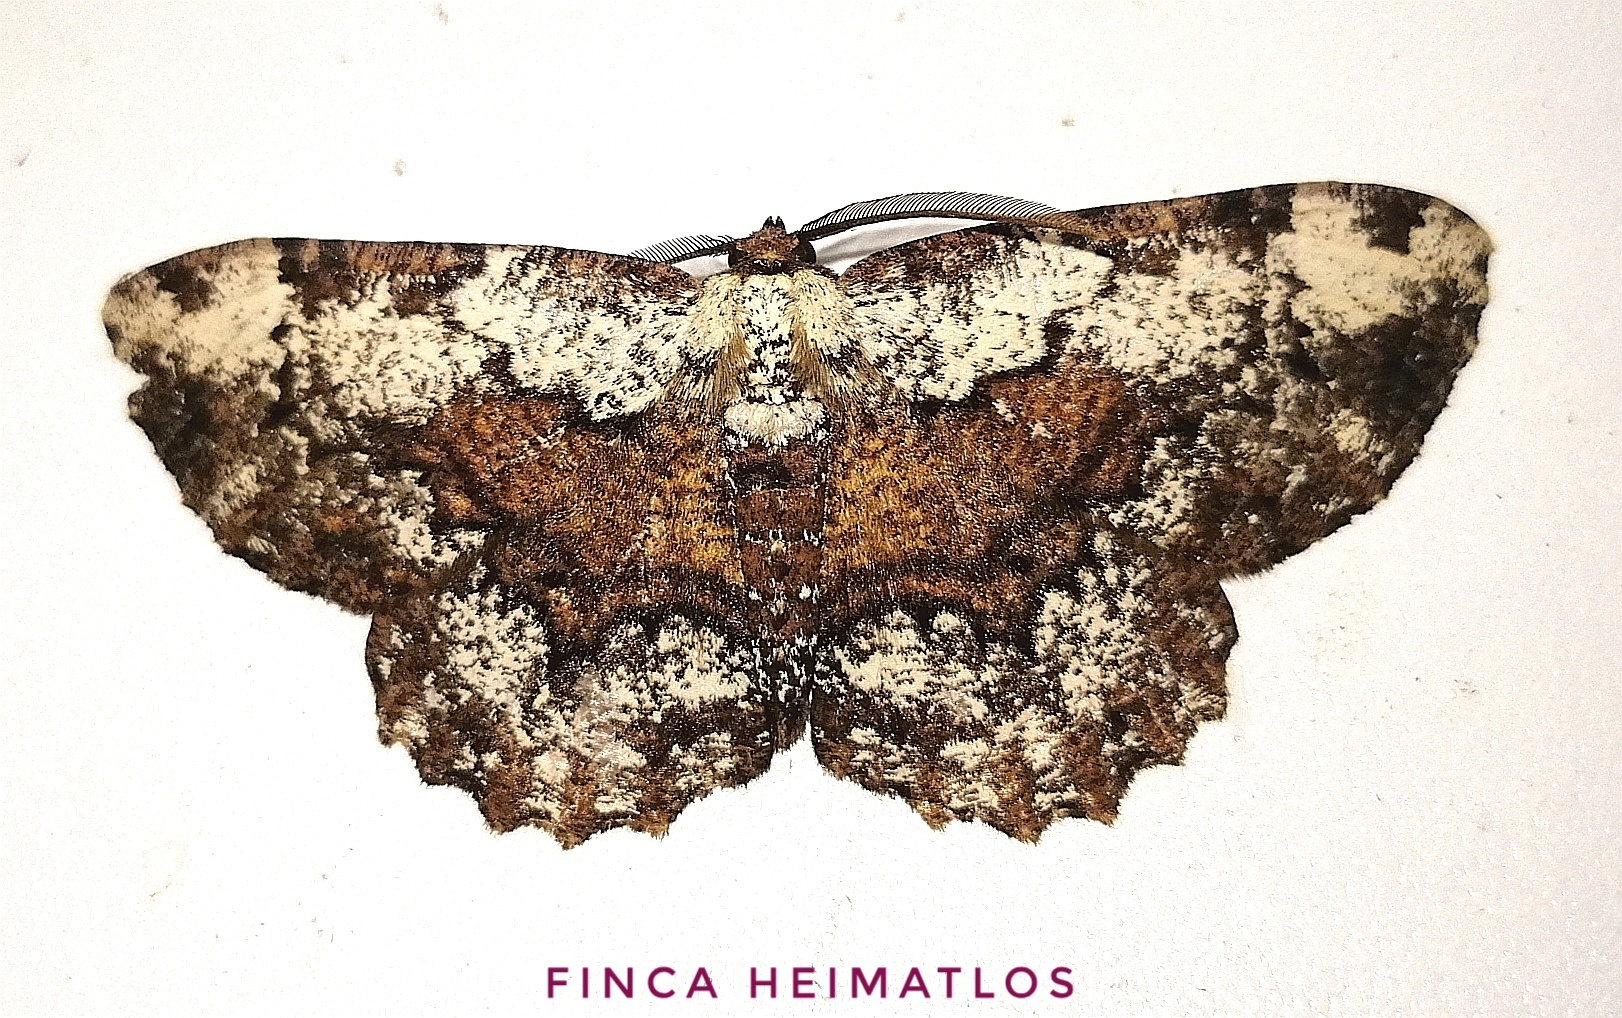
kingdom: Animalia
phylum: Arthropoda
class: Insecta
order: Lepidoptera
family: Geometridae
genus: Betulodes
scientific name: Betulodes crebraria
